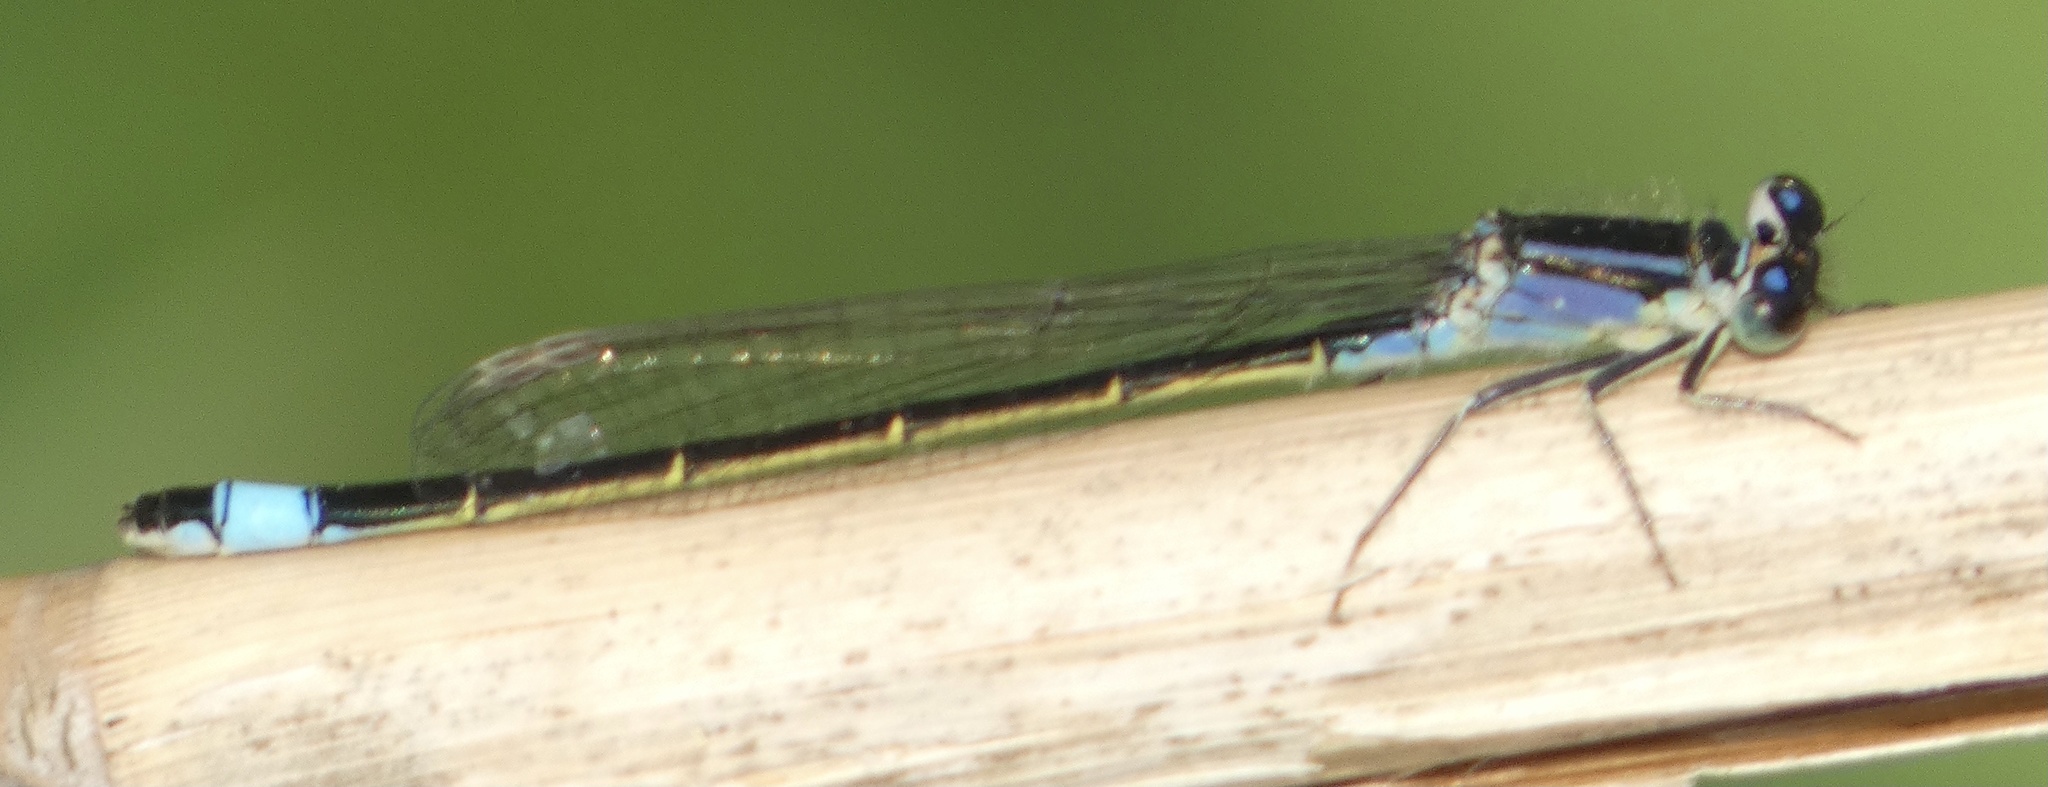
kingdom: Animalia
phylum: Arthropoda
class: Insecta
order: Odonata
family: Coenagrionidae
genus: Ischnura
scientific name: Ischnura elegans
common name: Blue-tailed damselfly
